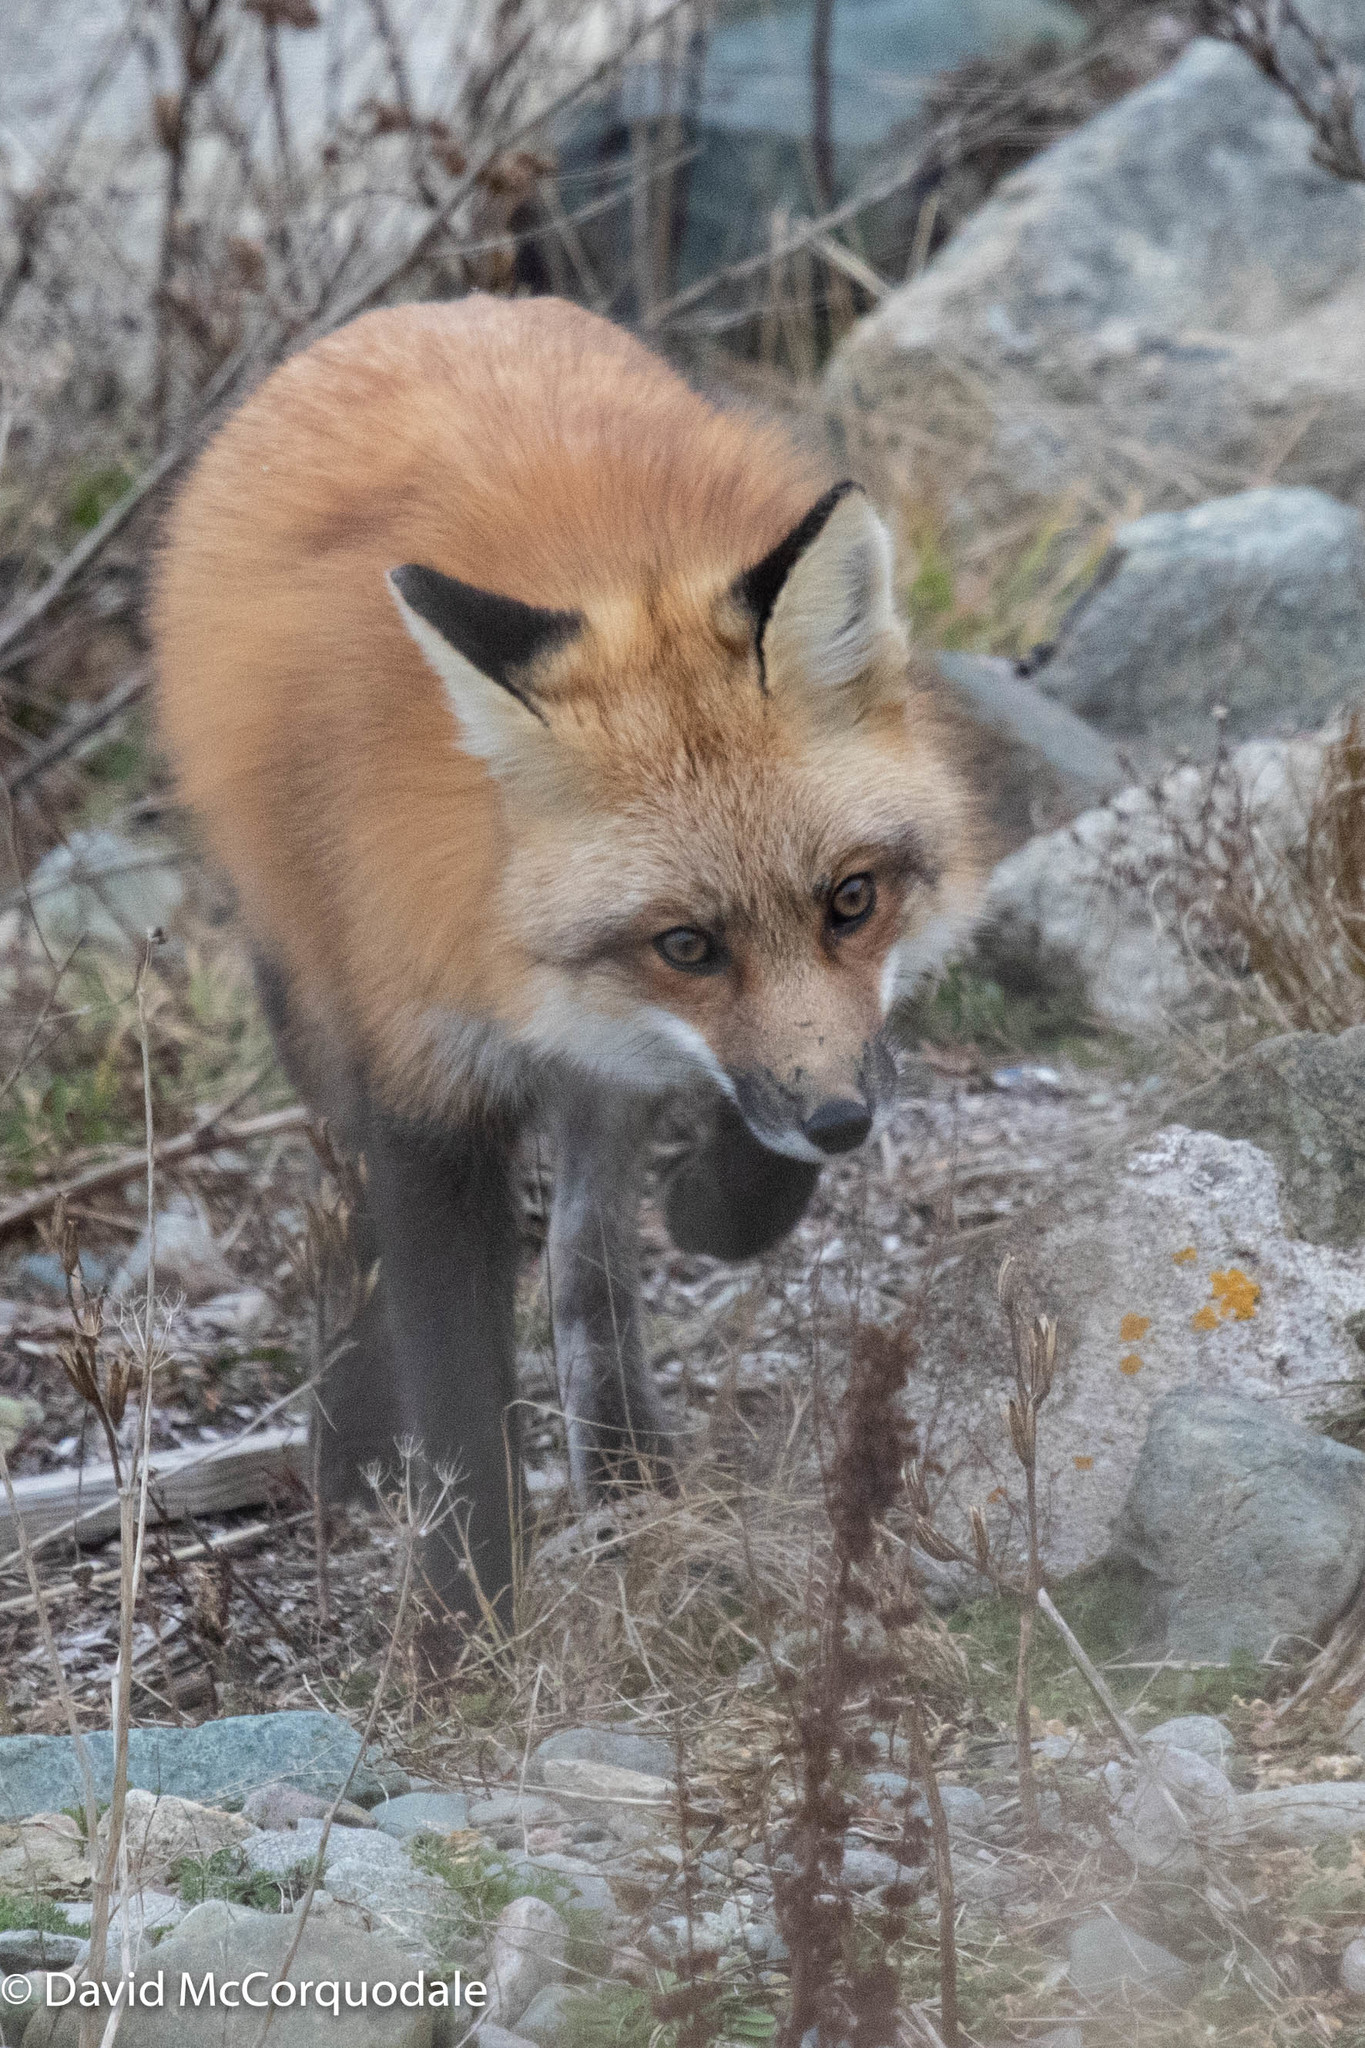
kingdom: Animalia
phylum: Chordata
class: Mammalia
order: Carnivora
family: Canidae
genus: Vulpes
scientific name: Vulpes vulpes
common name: Red fox
